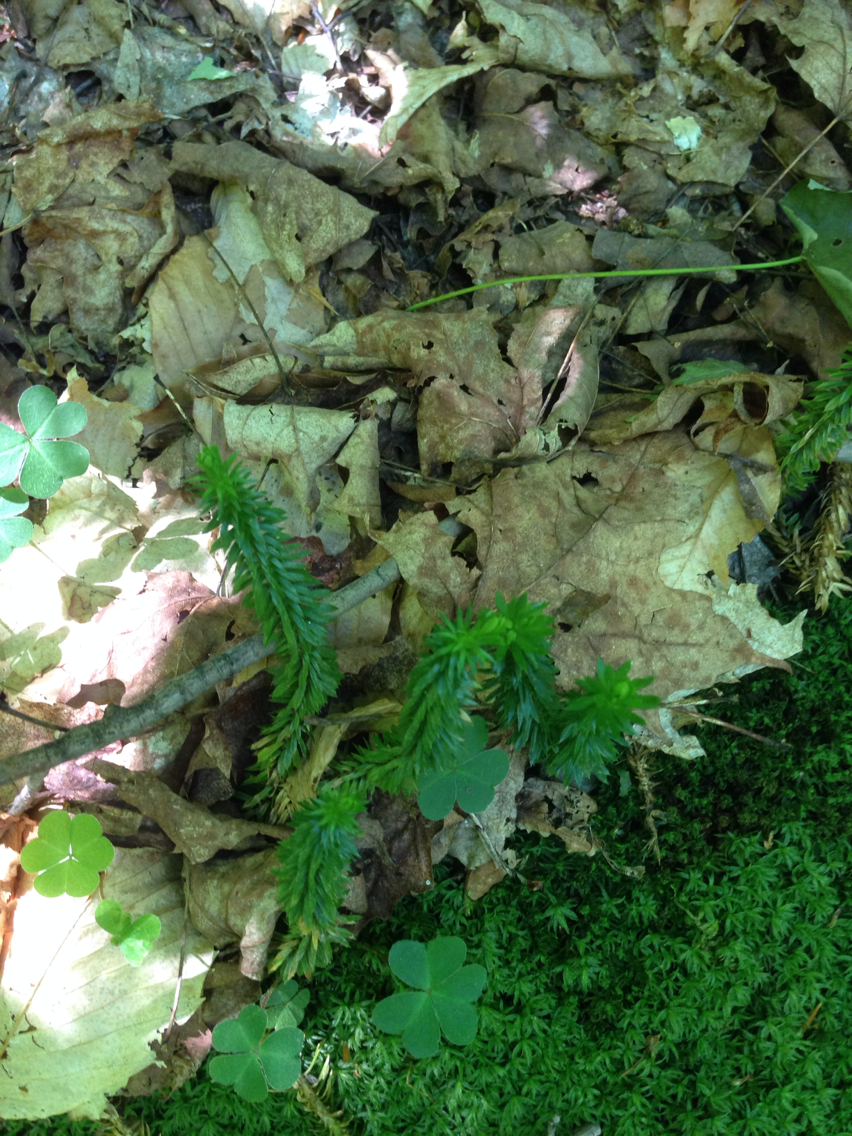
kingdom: Plantae
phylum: Tracheophyta
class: Lycopodiopsida
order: Lycopodiales
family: Lycopodiaceae
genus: Huperzia
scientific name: Huperzia lucidula
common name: Shining clubmoss
